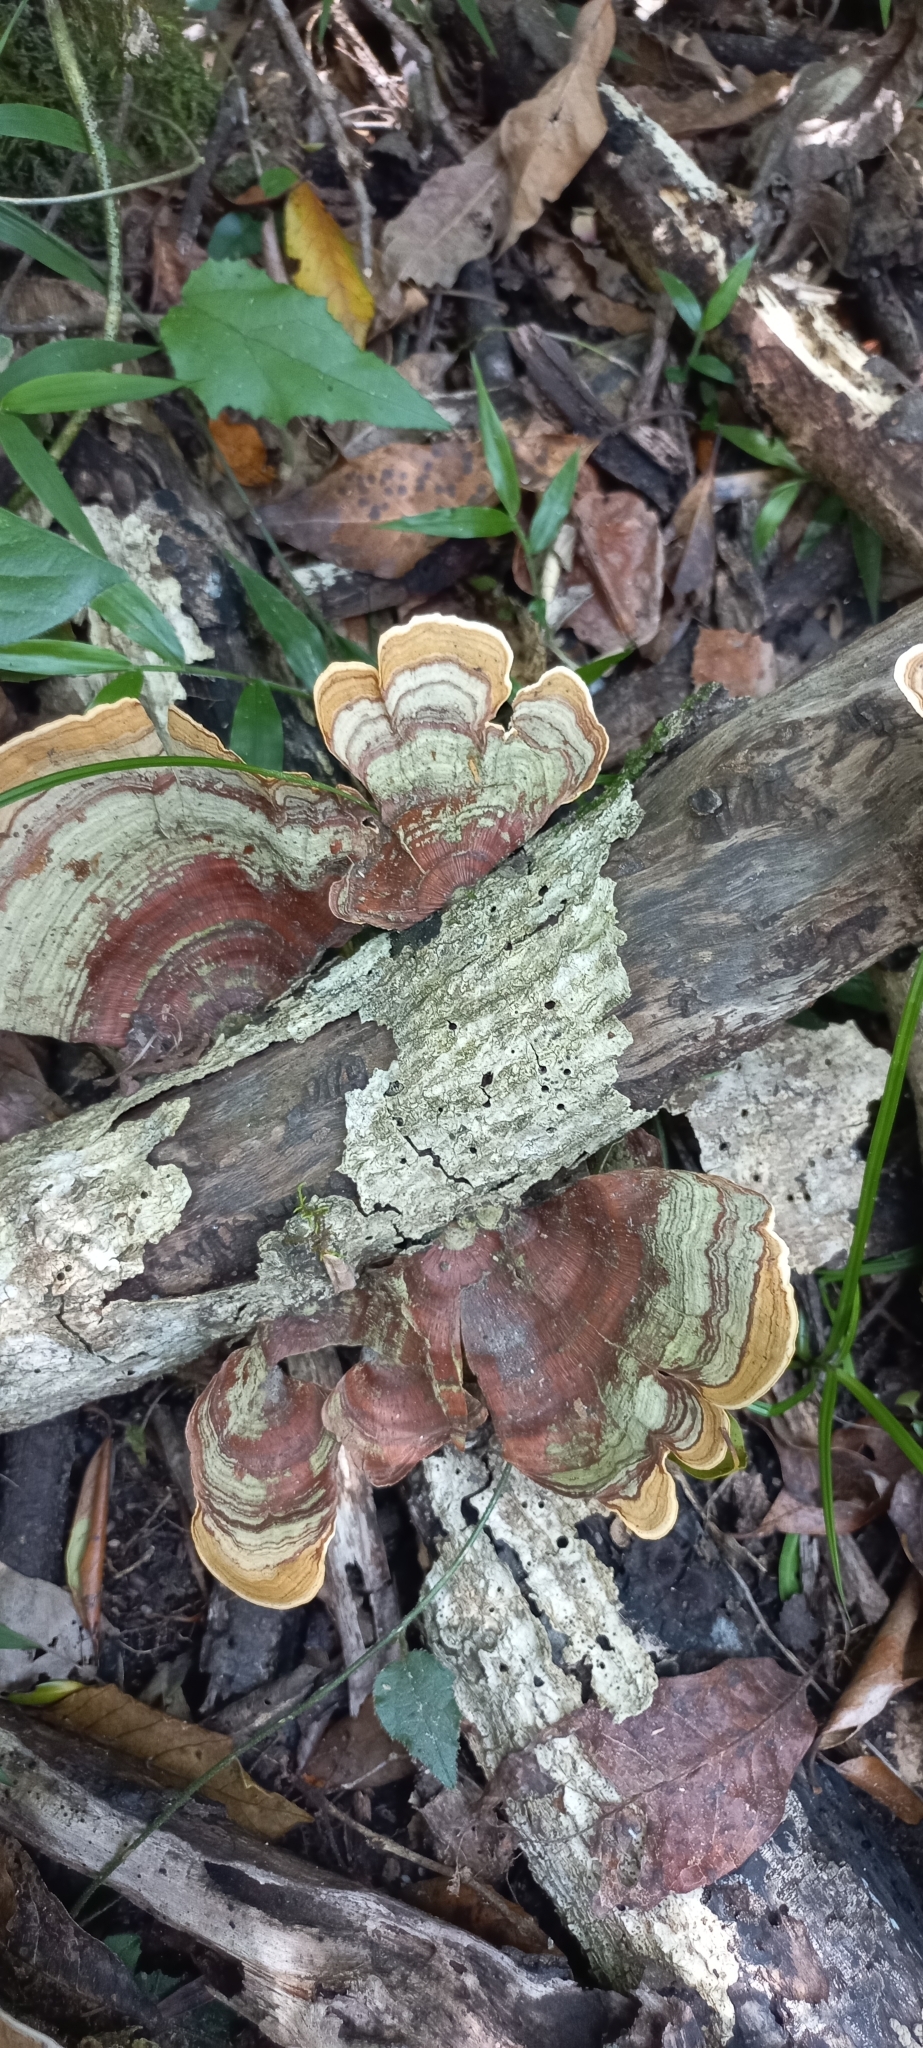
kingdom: Fungi
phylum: Basidiomycota
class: Agaricomycetes
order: Polyporales
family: Polyporaceae
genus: Trametes
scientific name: Trametes versicolor
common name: Turkeytail
